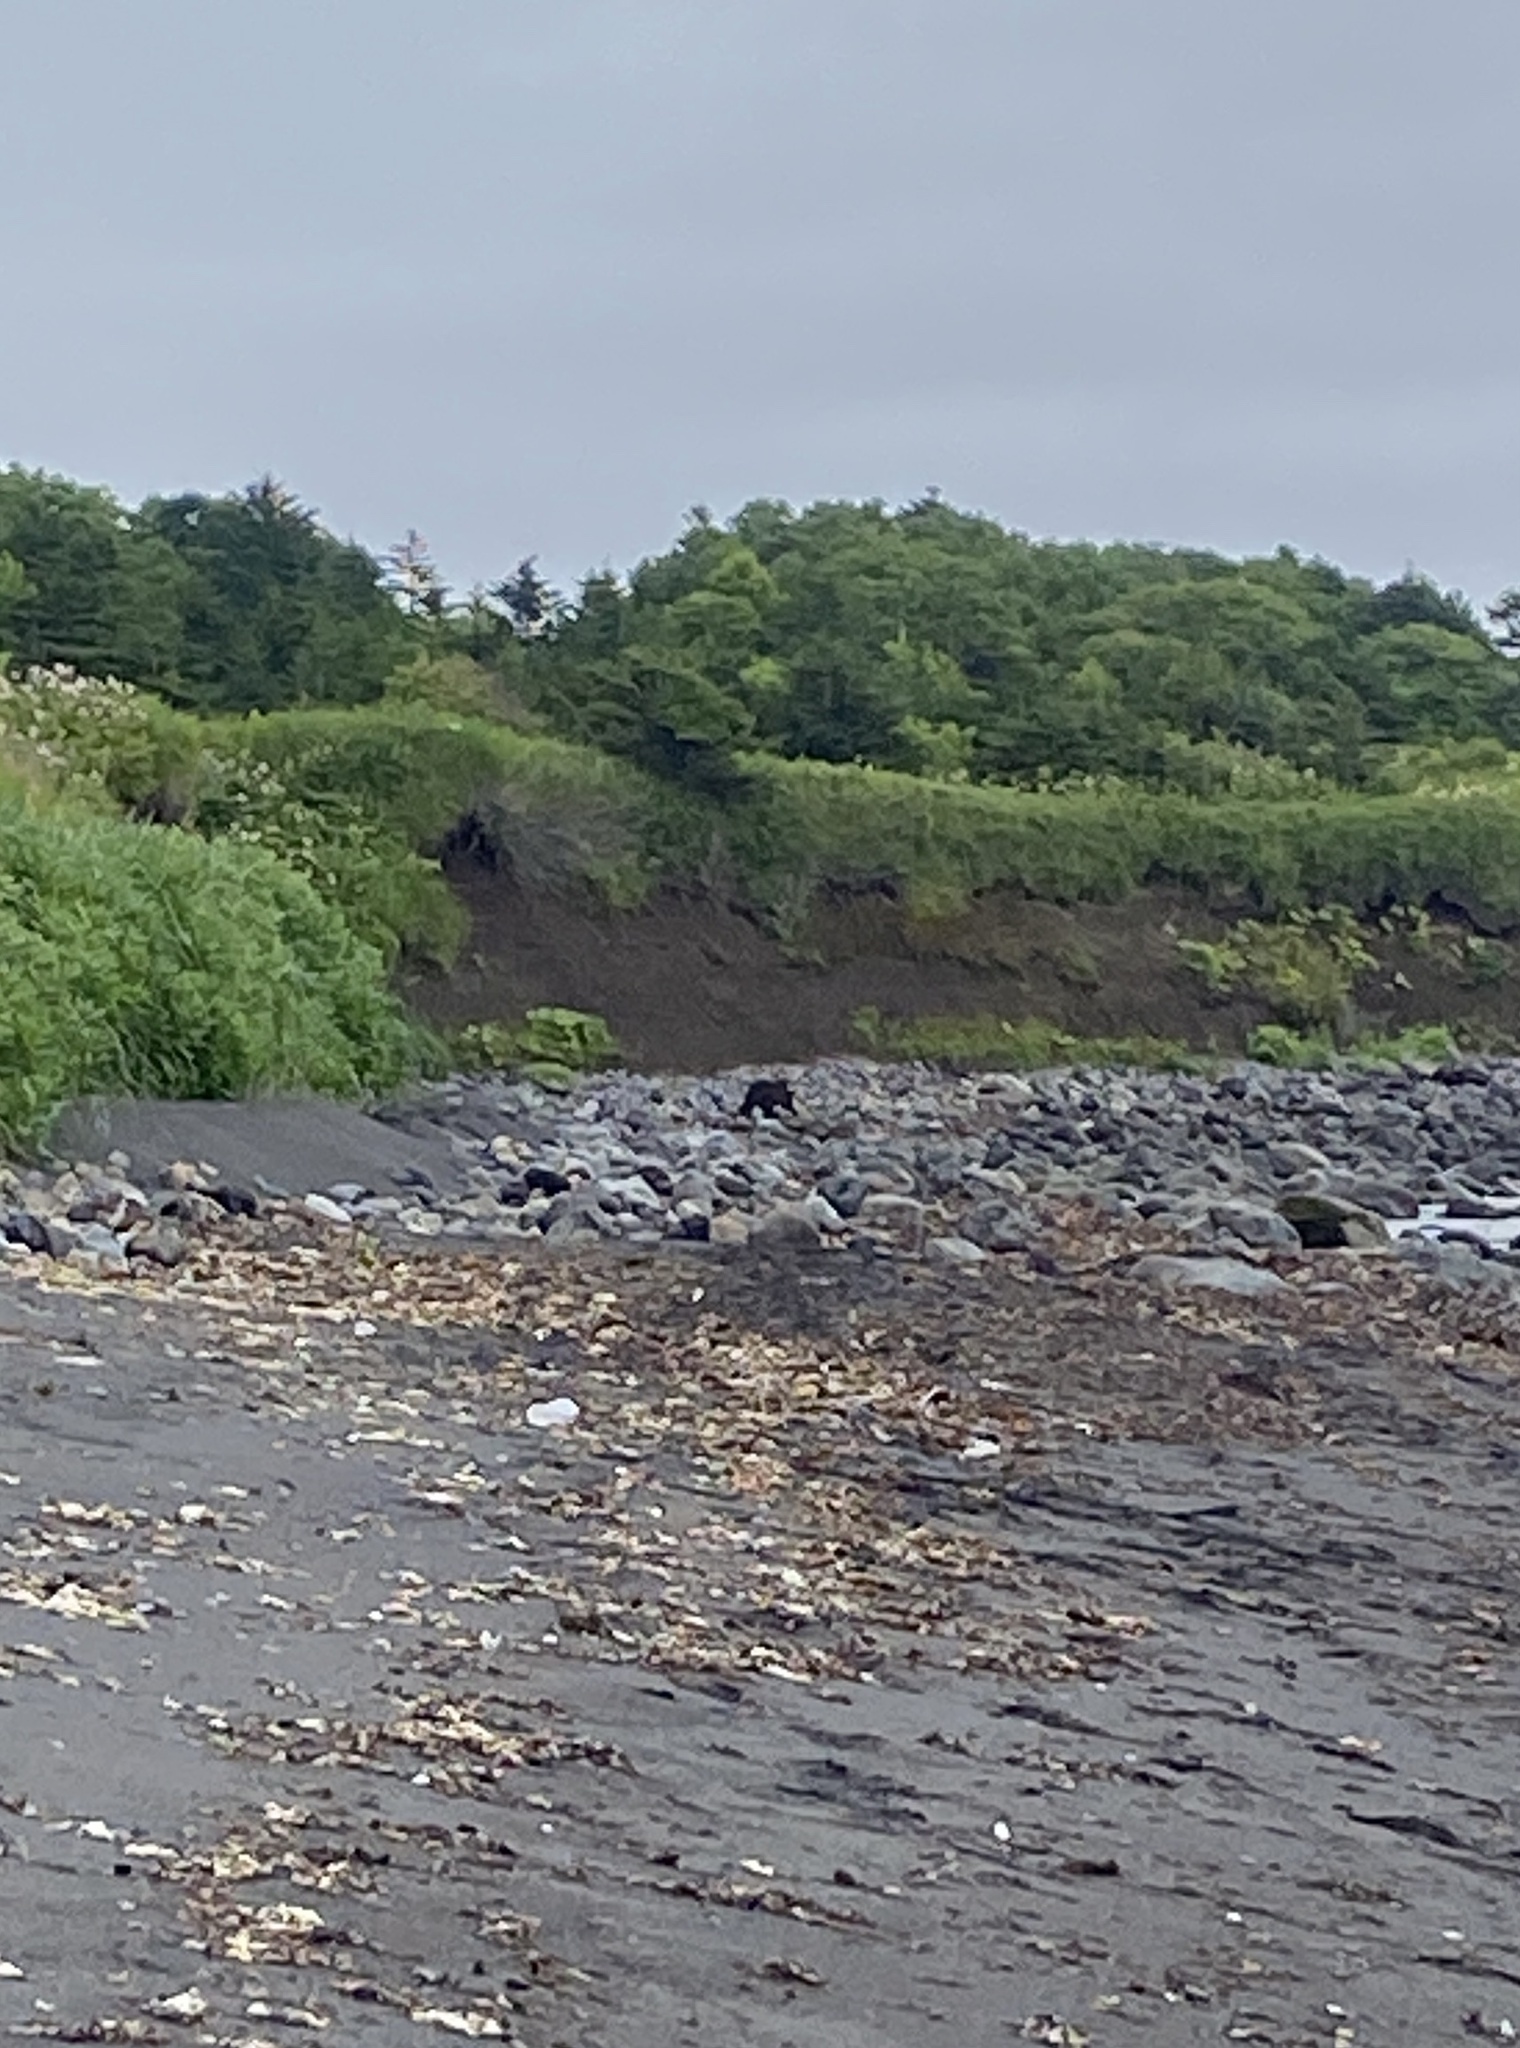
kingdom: Animalia
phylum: Chordata
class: Mammalia
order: Carnivora
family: Ursidae
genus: Ursus
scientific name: Ursus arctos
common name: Brown bear
